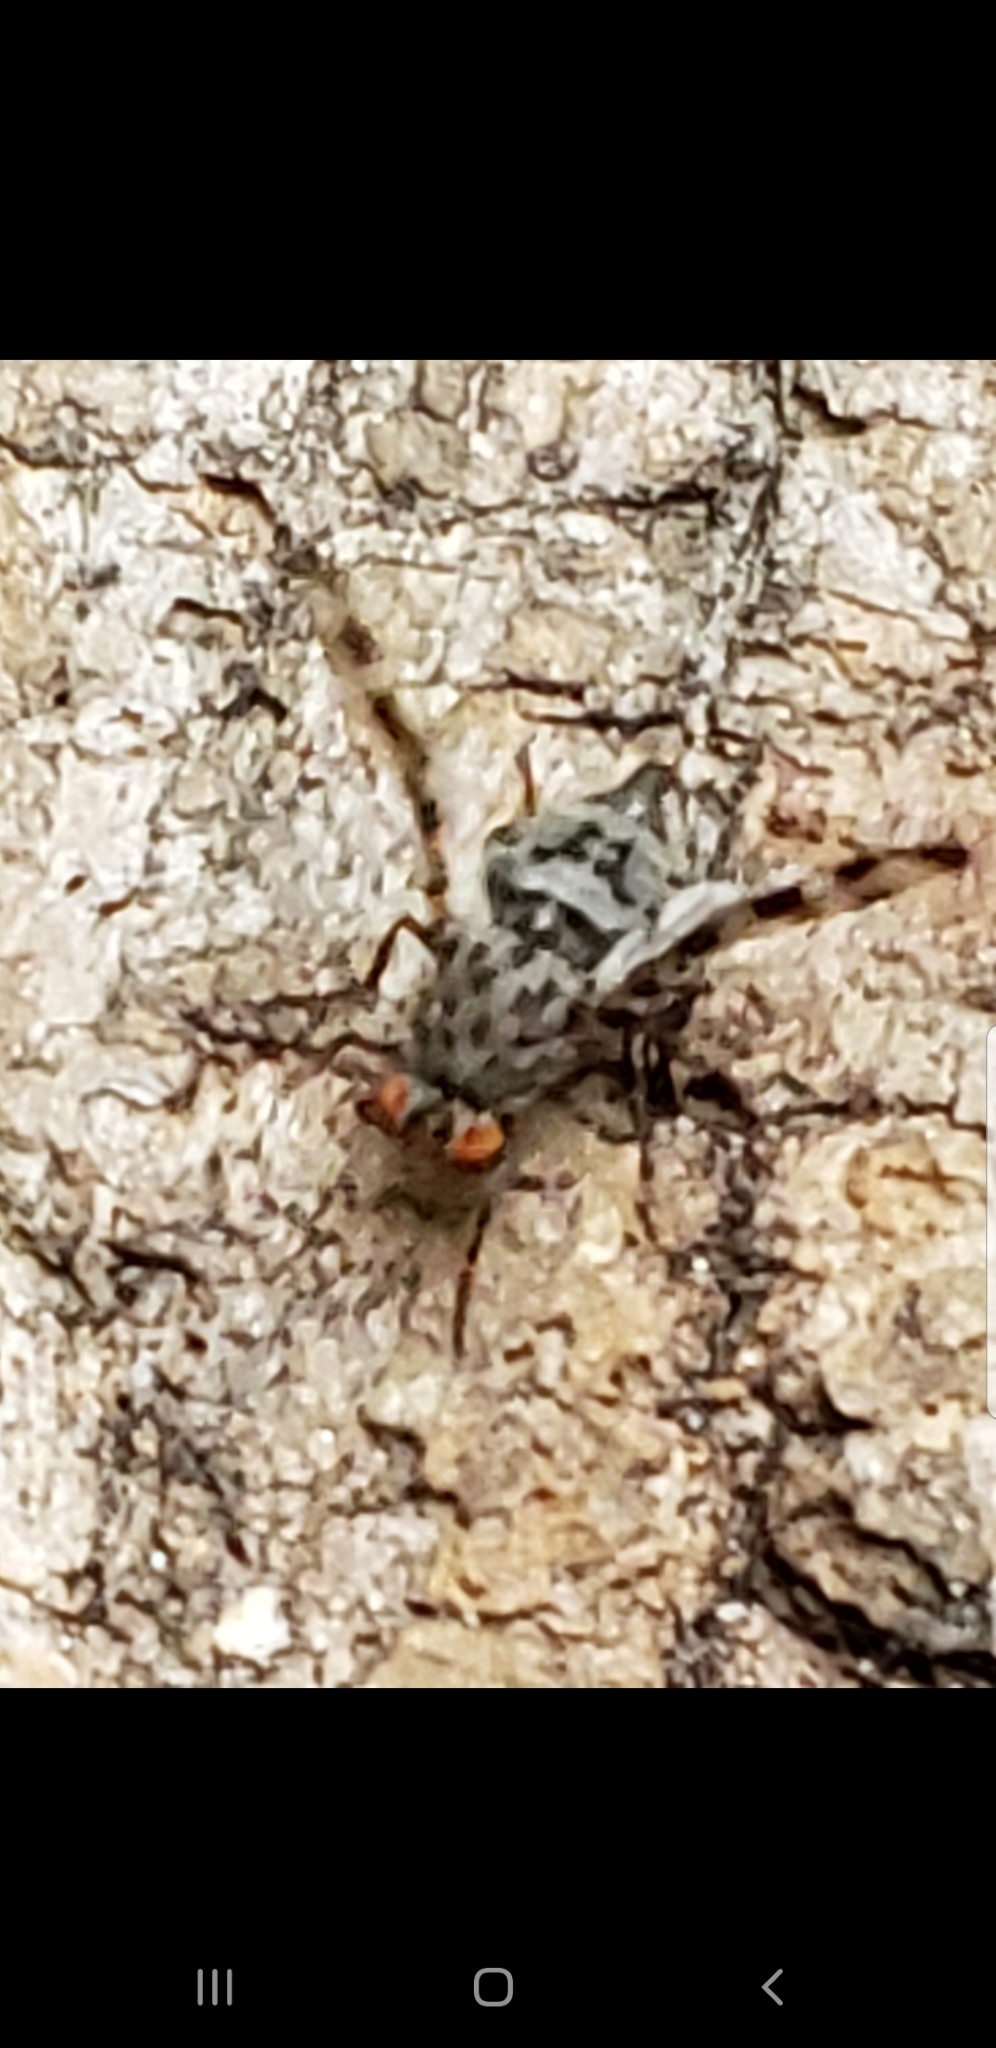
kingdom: Animalia
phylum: Arthropoda
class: Insecta
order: Diptera
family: Ulidiidae
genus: Pseudotephritis
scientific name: Pseudotephritis approximata
